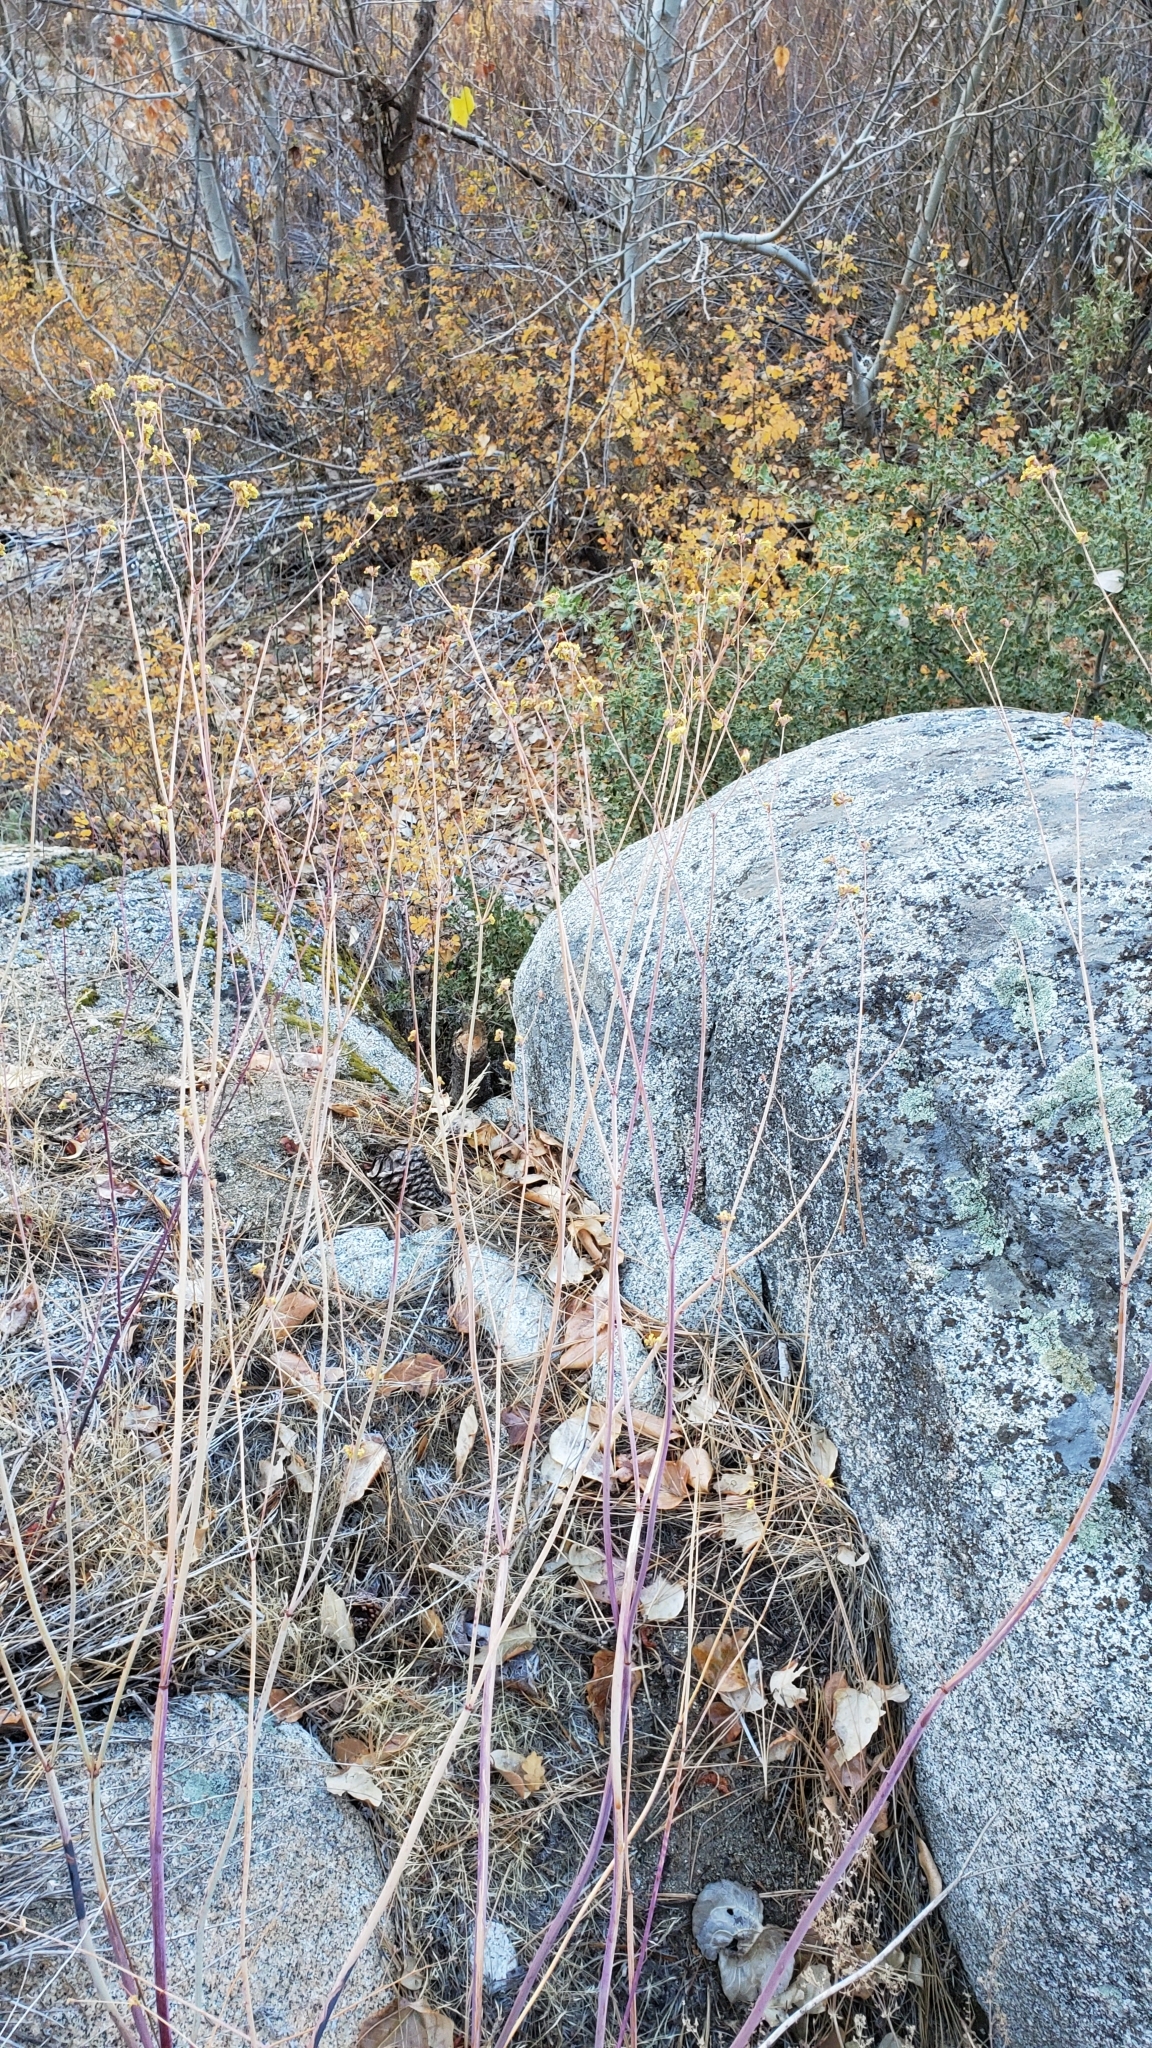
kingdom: Plantae
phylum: Tracheophyta
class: Magnoliopsida
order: Caryophyllales
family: Polygonaceae
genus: Eriogonum
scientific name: Eriogonum inflatum
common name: Desert trumpet
